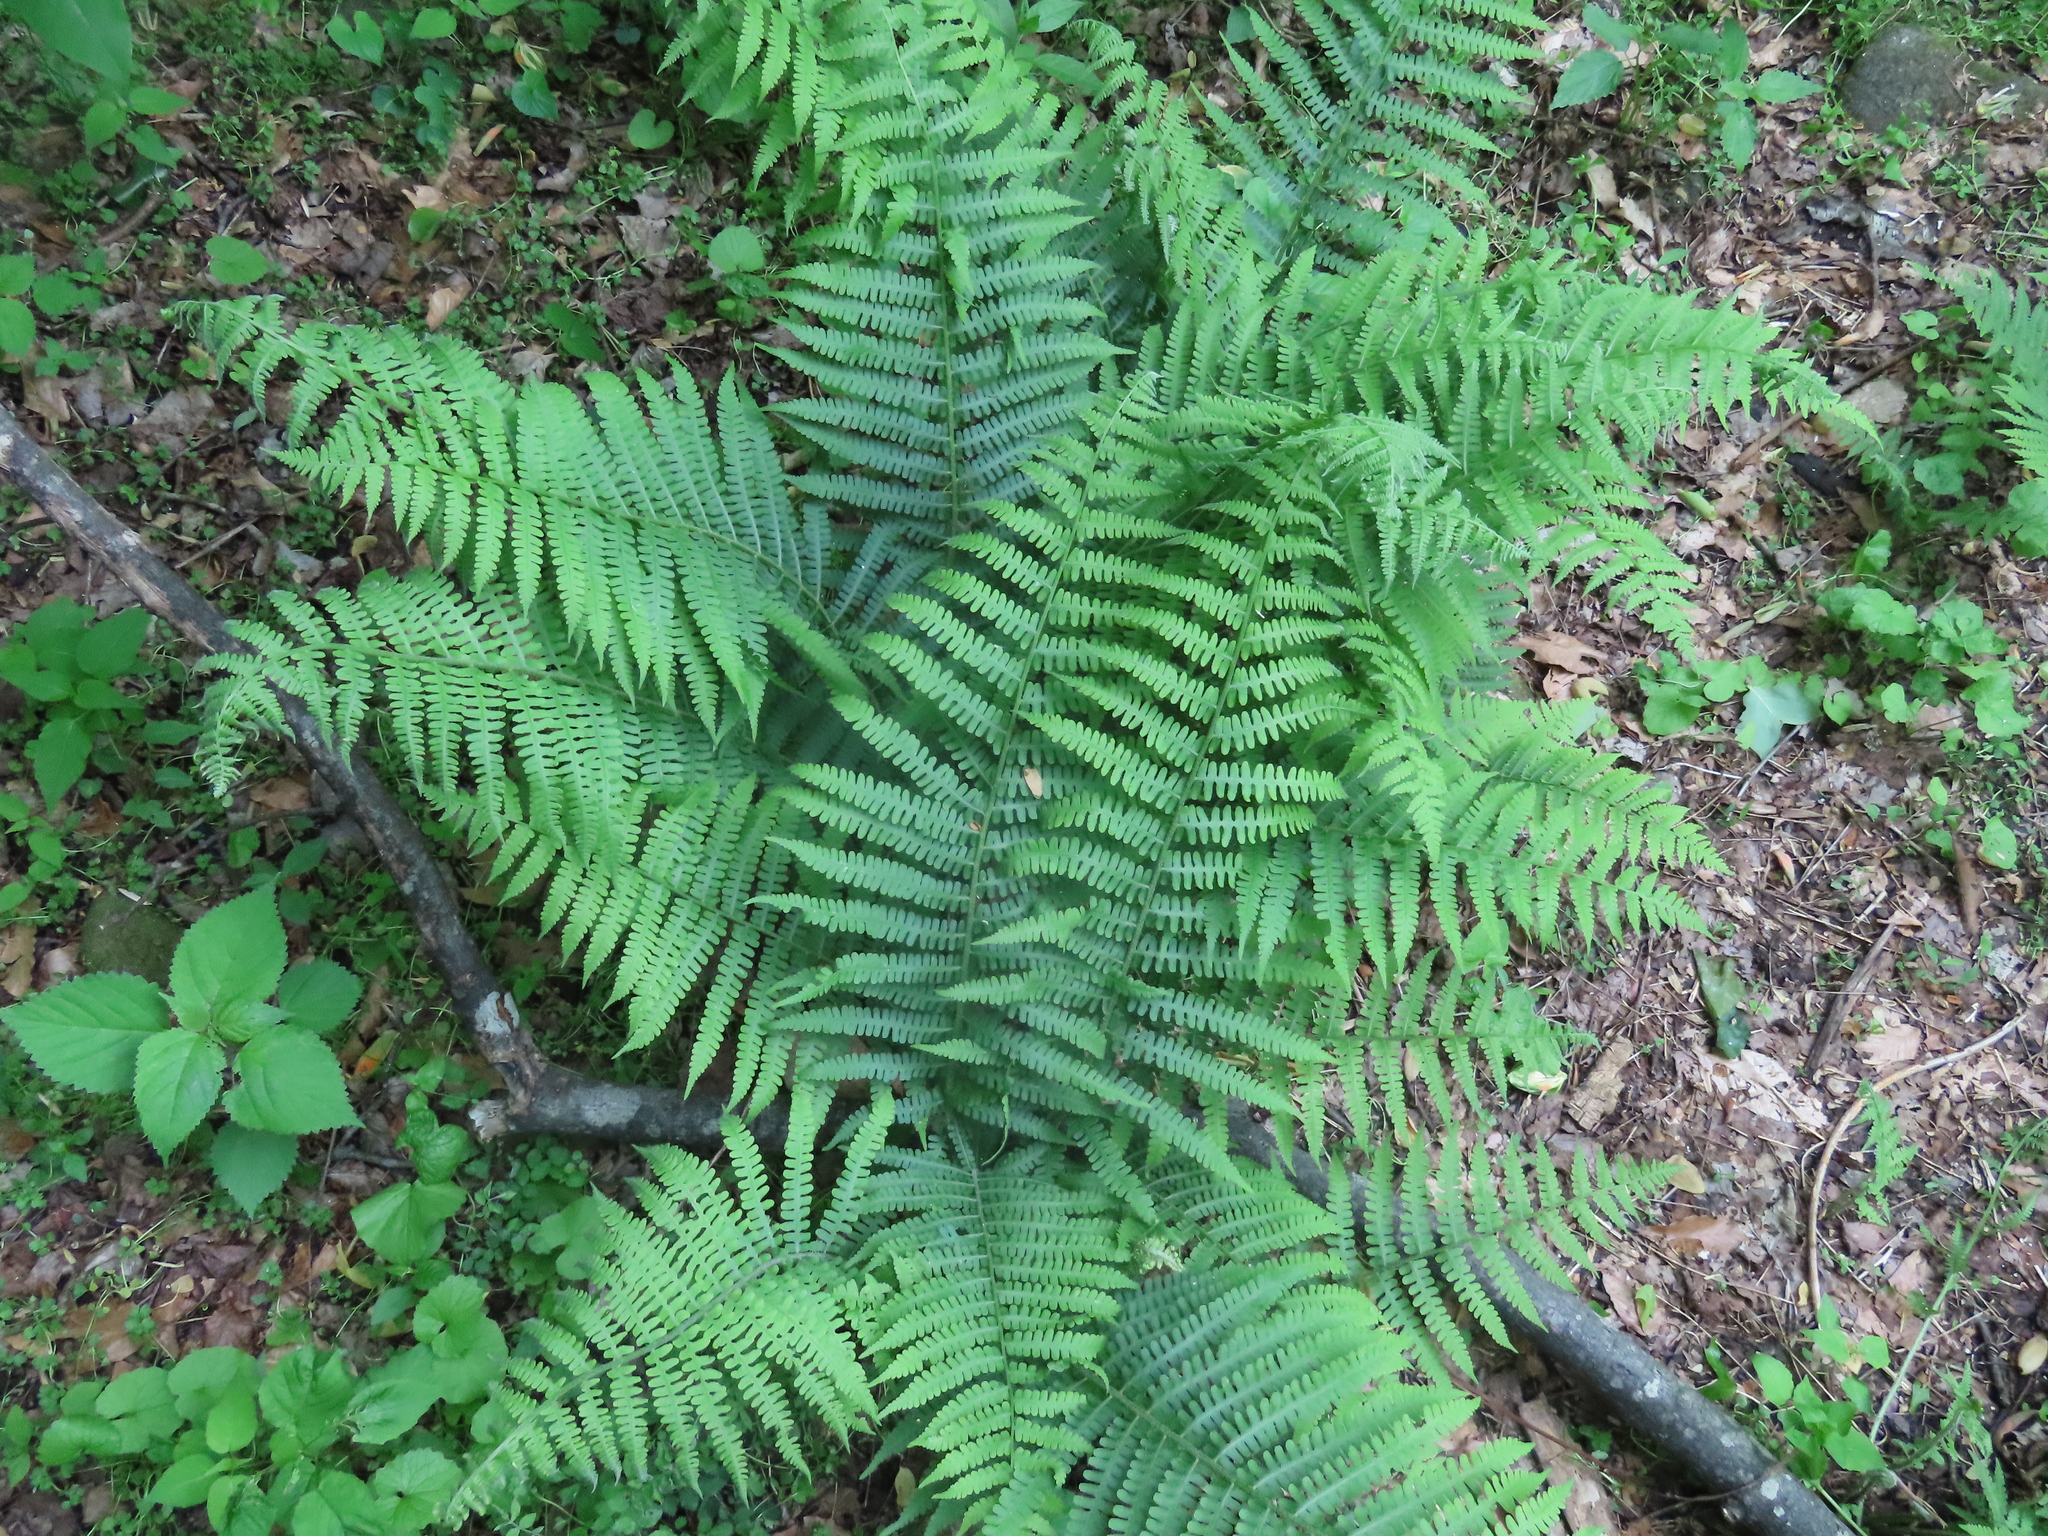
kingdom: Plantae
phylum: Tracheophyta
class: Polypodiopsida
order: Polypodiales
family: Athyriaceae
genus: Deparia
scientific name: Deparia acrostichoides
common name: Silver false spleenwort
